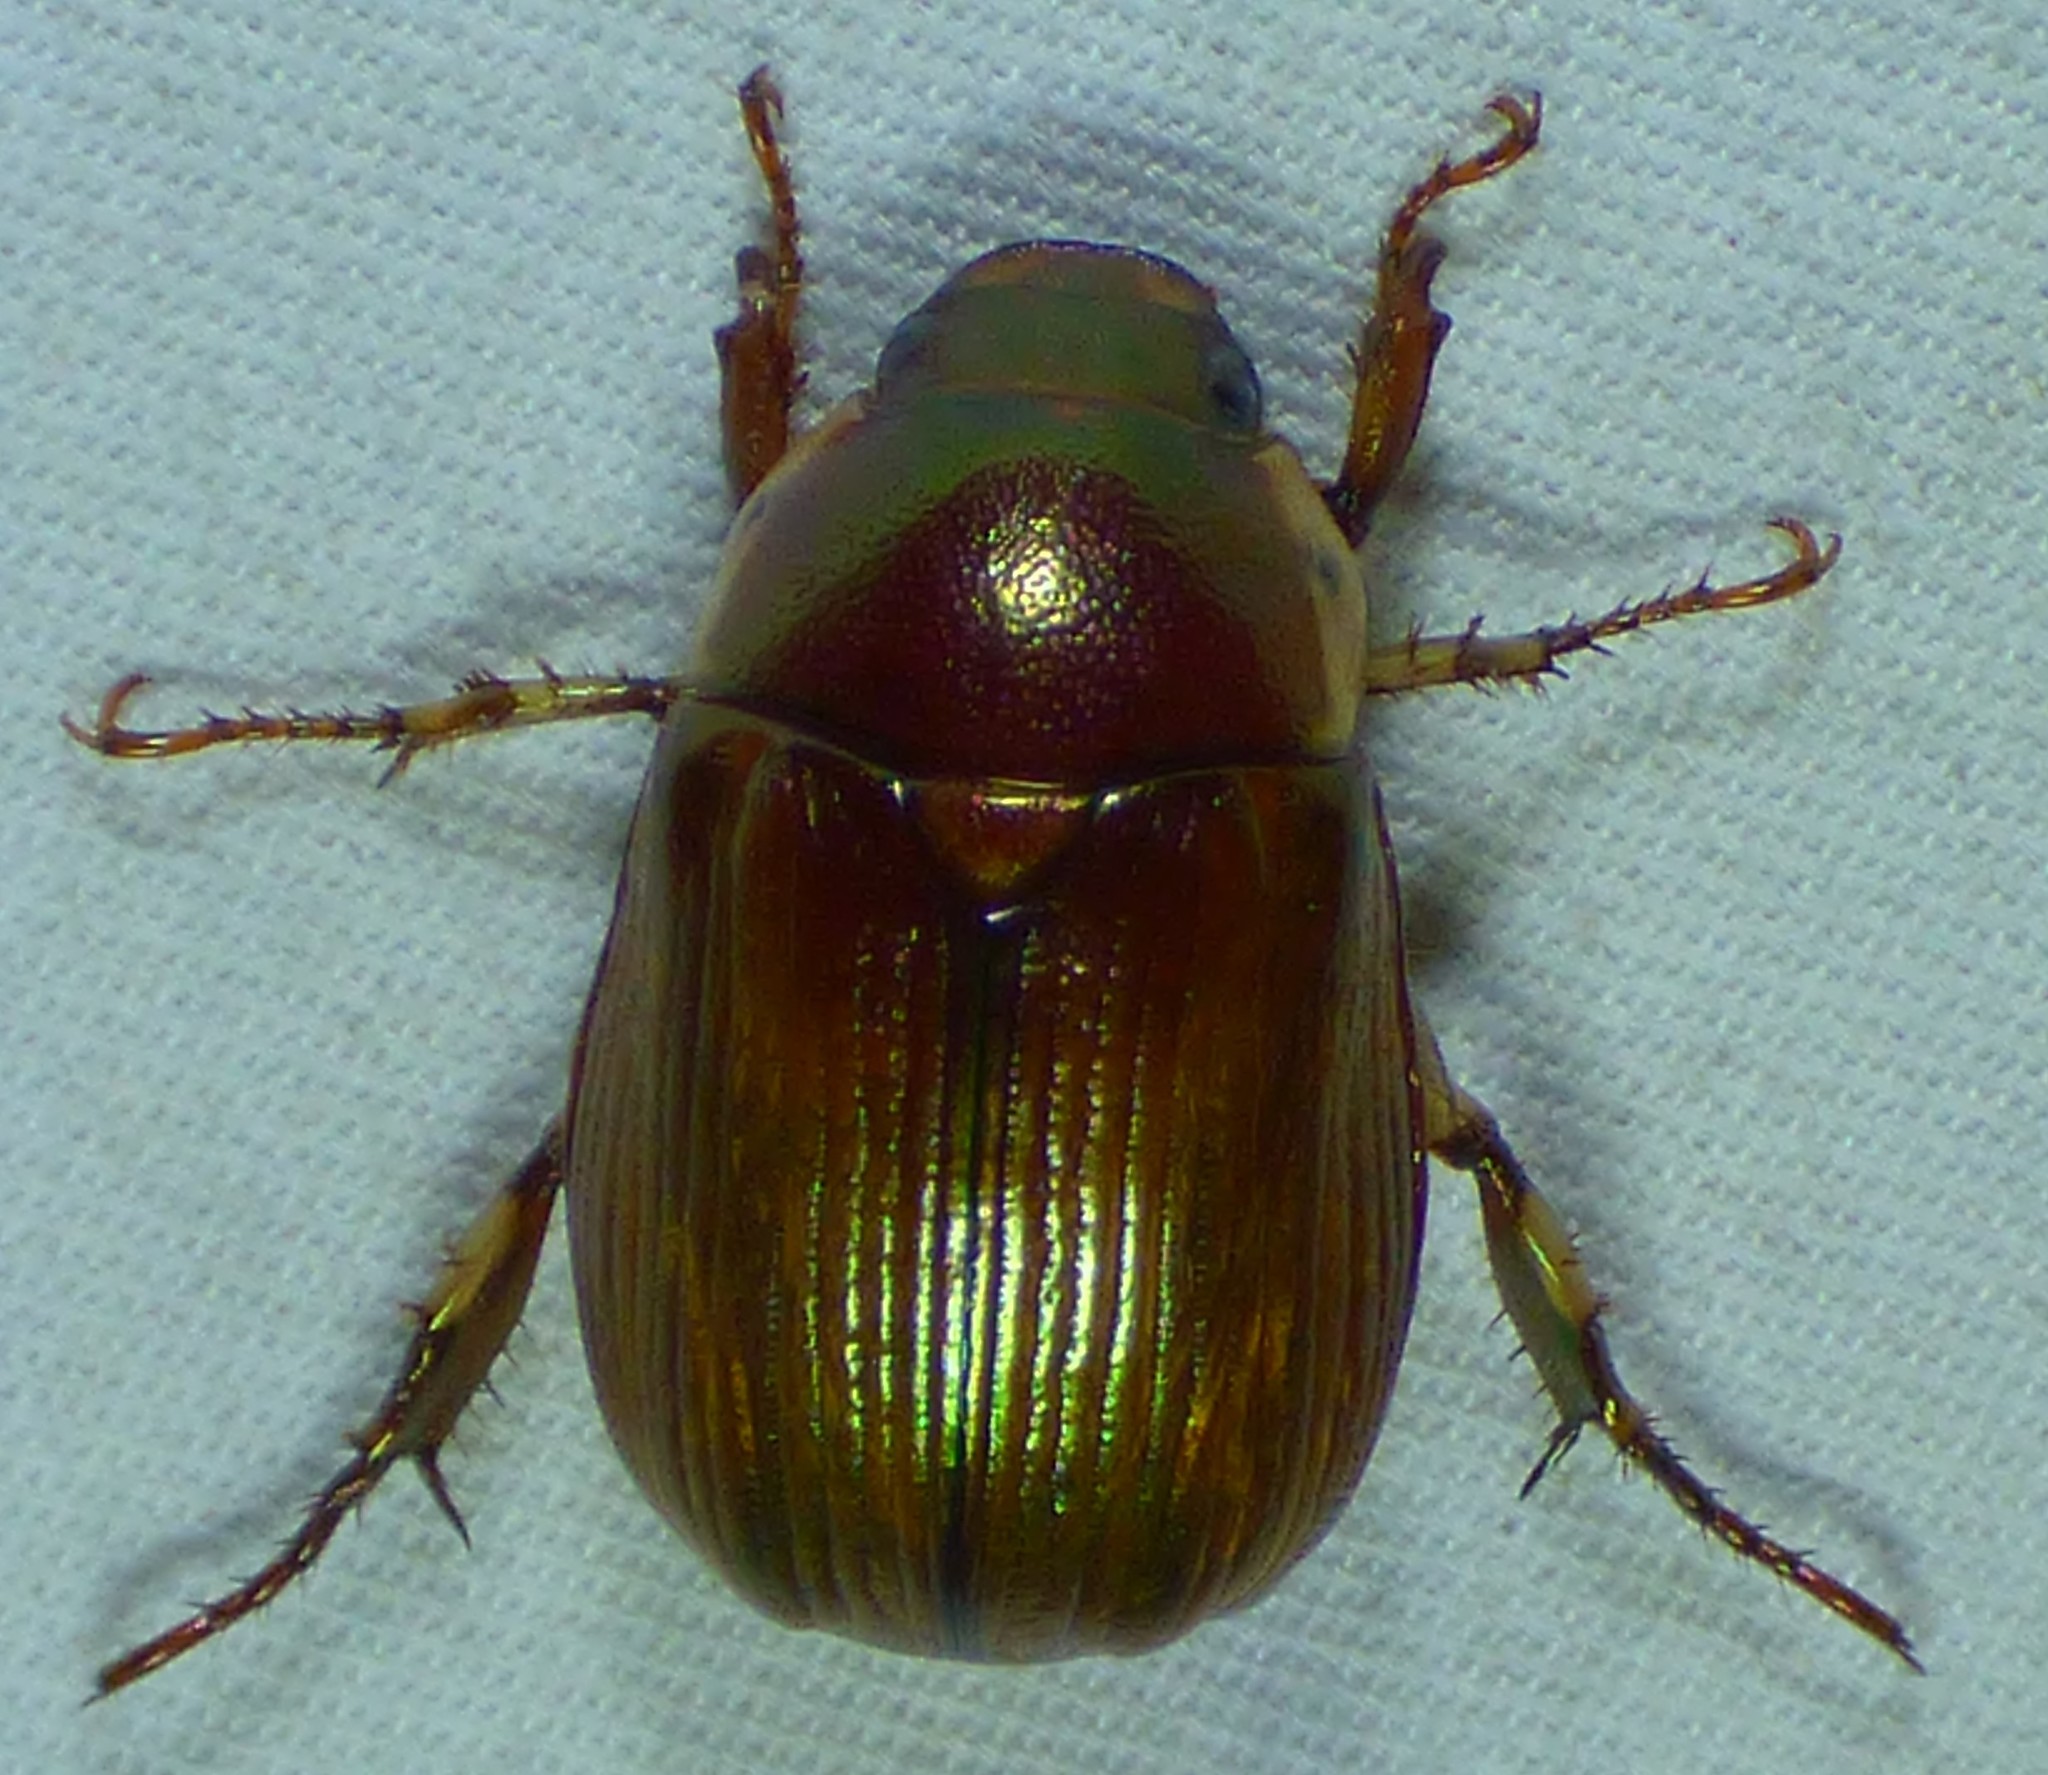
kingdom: Animalia
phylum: Arthropoda
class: Insecta
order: Coleoptera
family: Scarabaeidae
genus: Callistethus
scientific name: Callistethus marginatus
